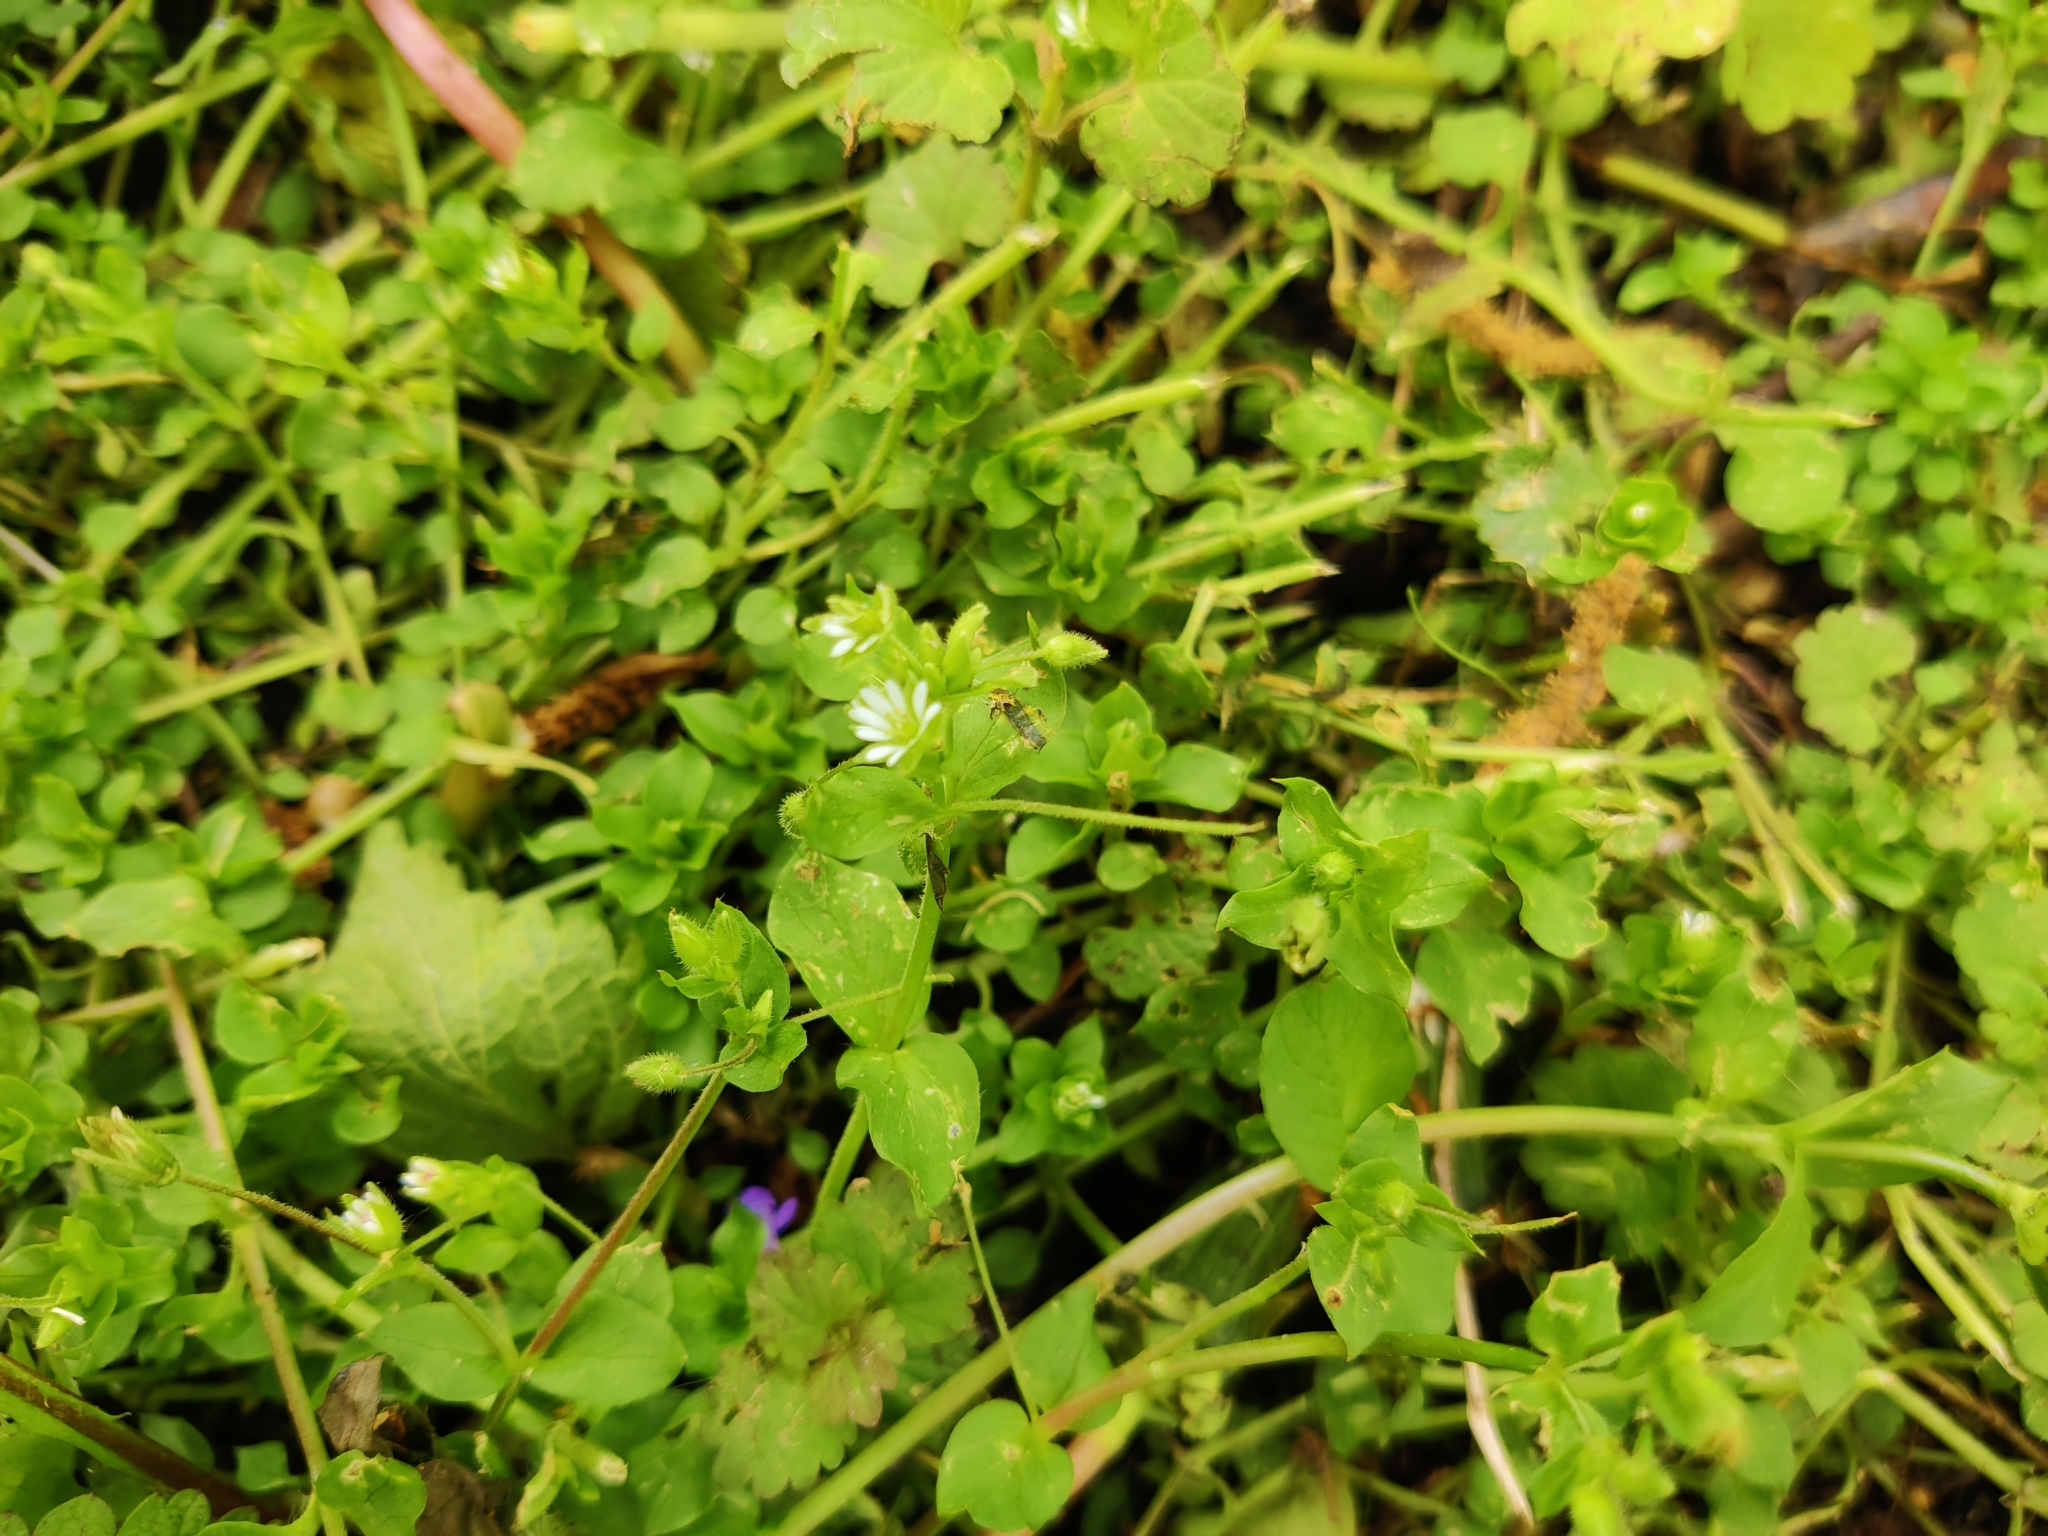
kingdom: Plantae
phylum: Tracheophyta
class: Magnoliopsida
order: Caryophyllales
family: Caryophyllaceae
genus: Stellaria
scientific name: Stellaria media
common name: Common chickweed
